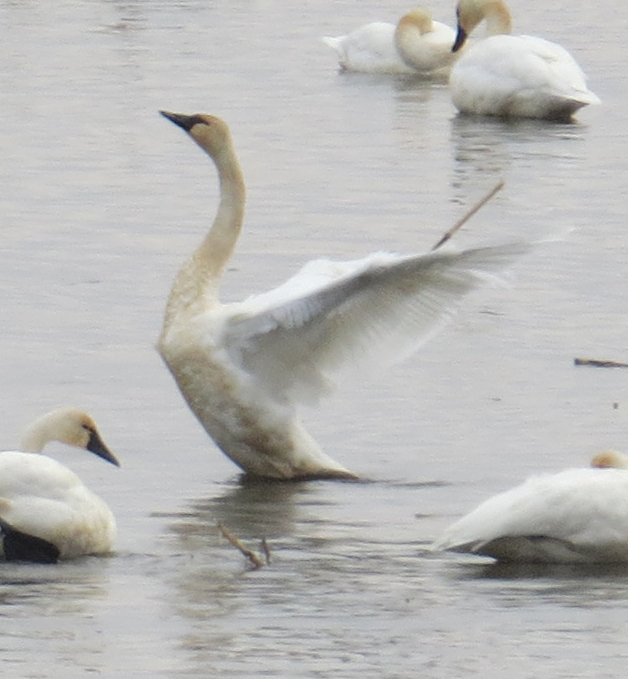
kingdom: Animalia
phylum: Chordata
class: Aves
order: Anseriformes
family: Anatidae
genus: Cygnus
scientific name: Cygnus columbianus
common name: Tundra swan
